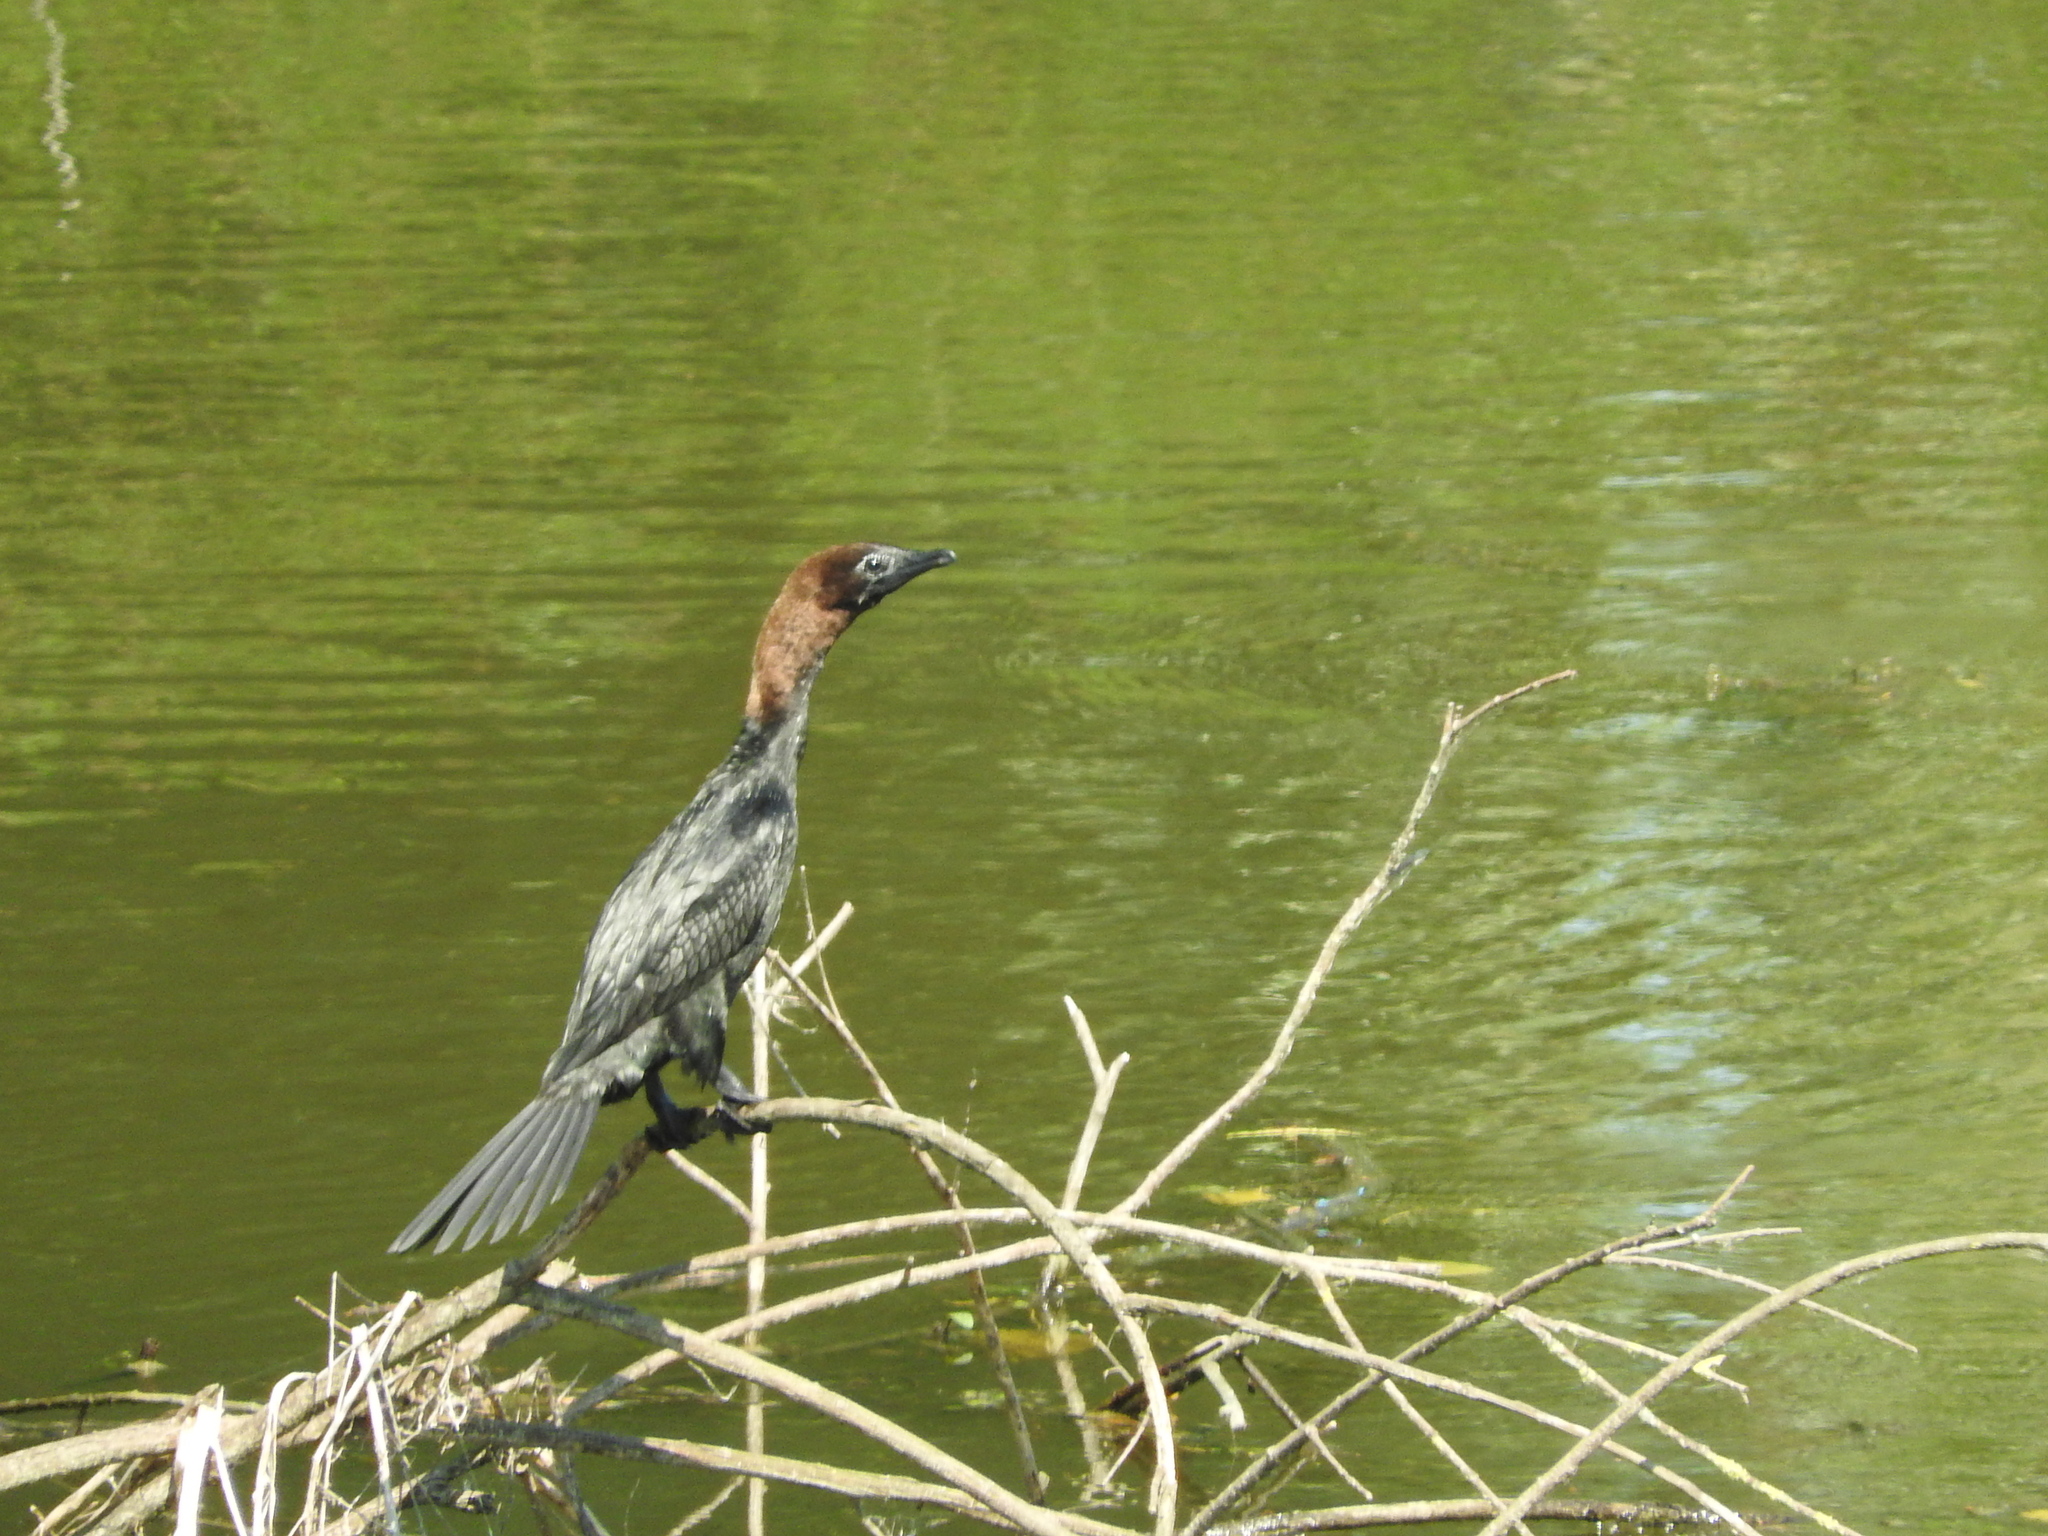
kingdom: Animalia
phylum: Chordata
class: Aves
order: Suliformes
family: Phalacrocoracidae
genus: Microcarbo
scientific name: Microcarbo pygmaeus
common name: Pygmy cormorant
